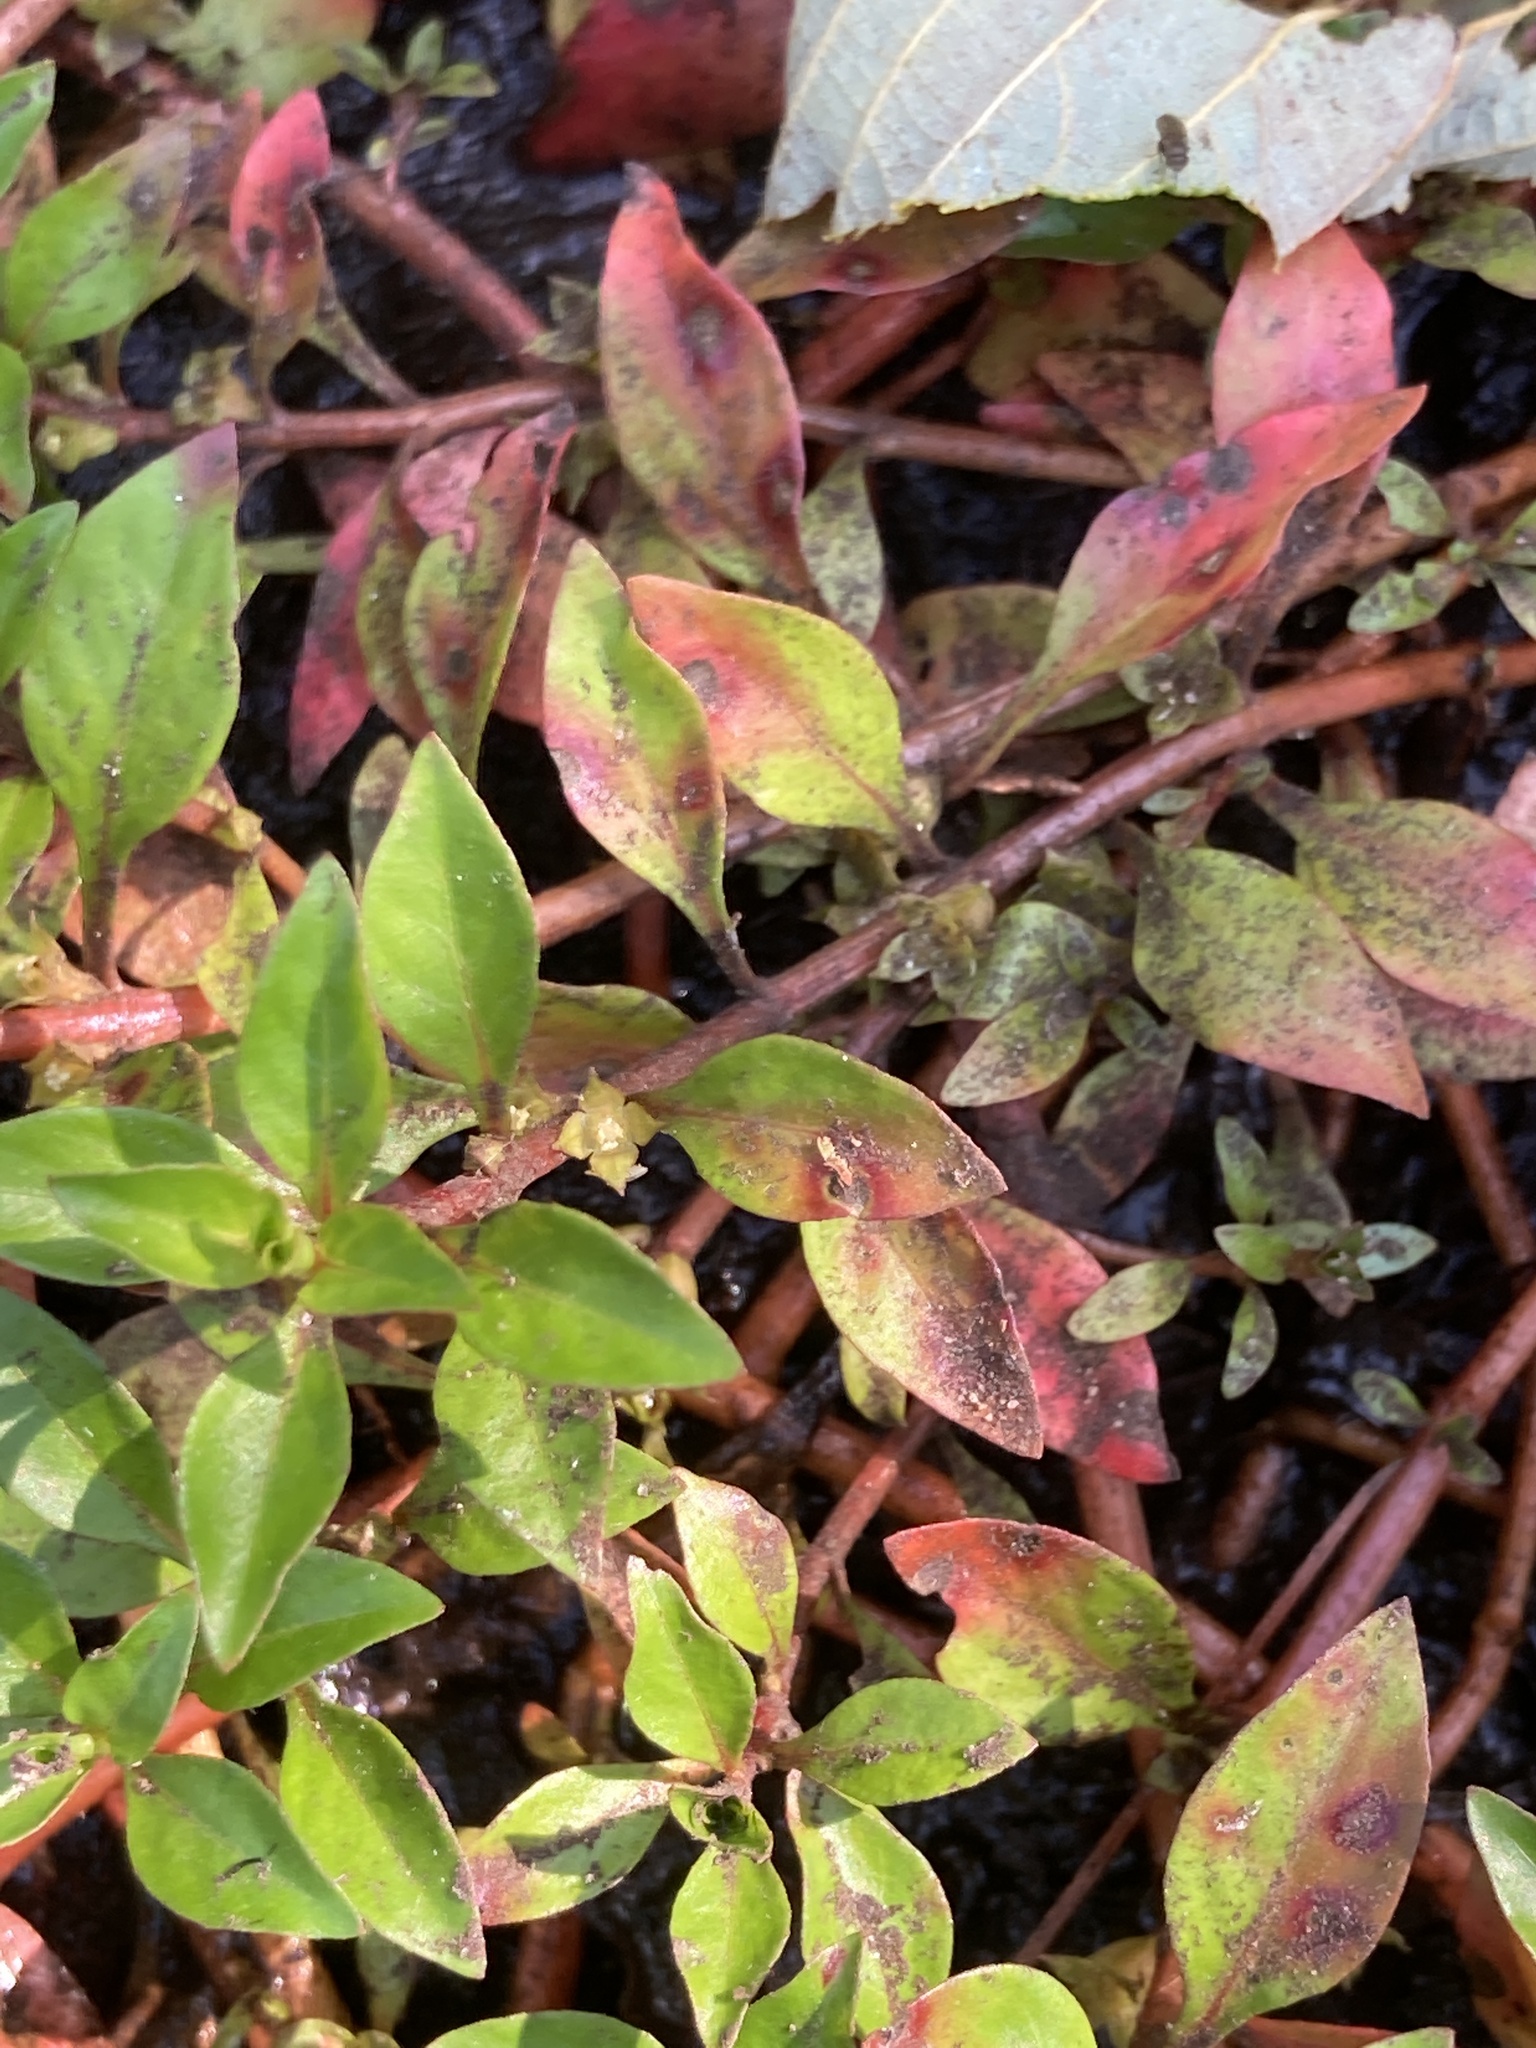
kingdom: Plantae
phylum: Tracheophyta
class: Magnoliopsida
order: Myrtales
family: Onagraceae
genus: Ludwigia
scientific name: Ludwigia palustris
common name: Hampshire-purslane
